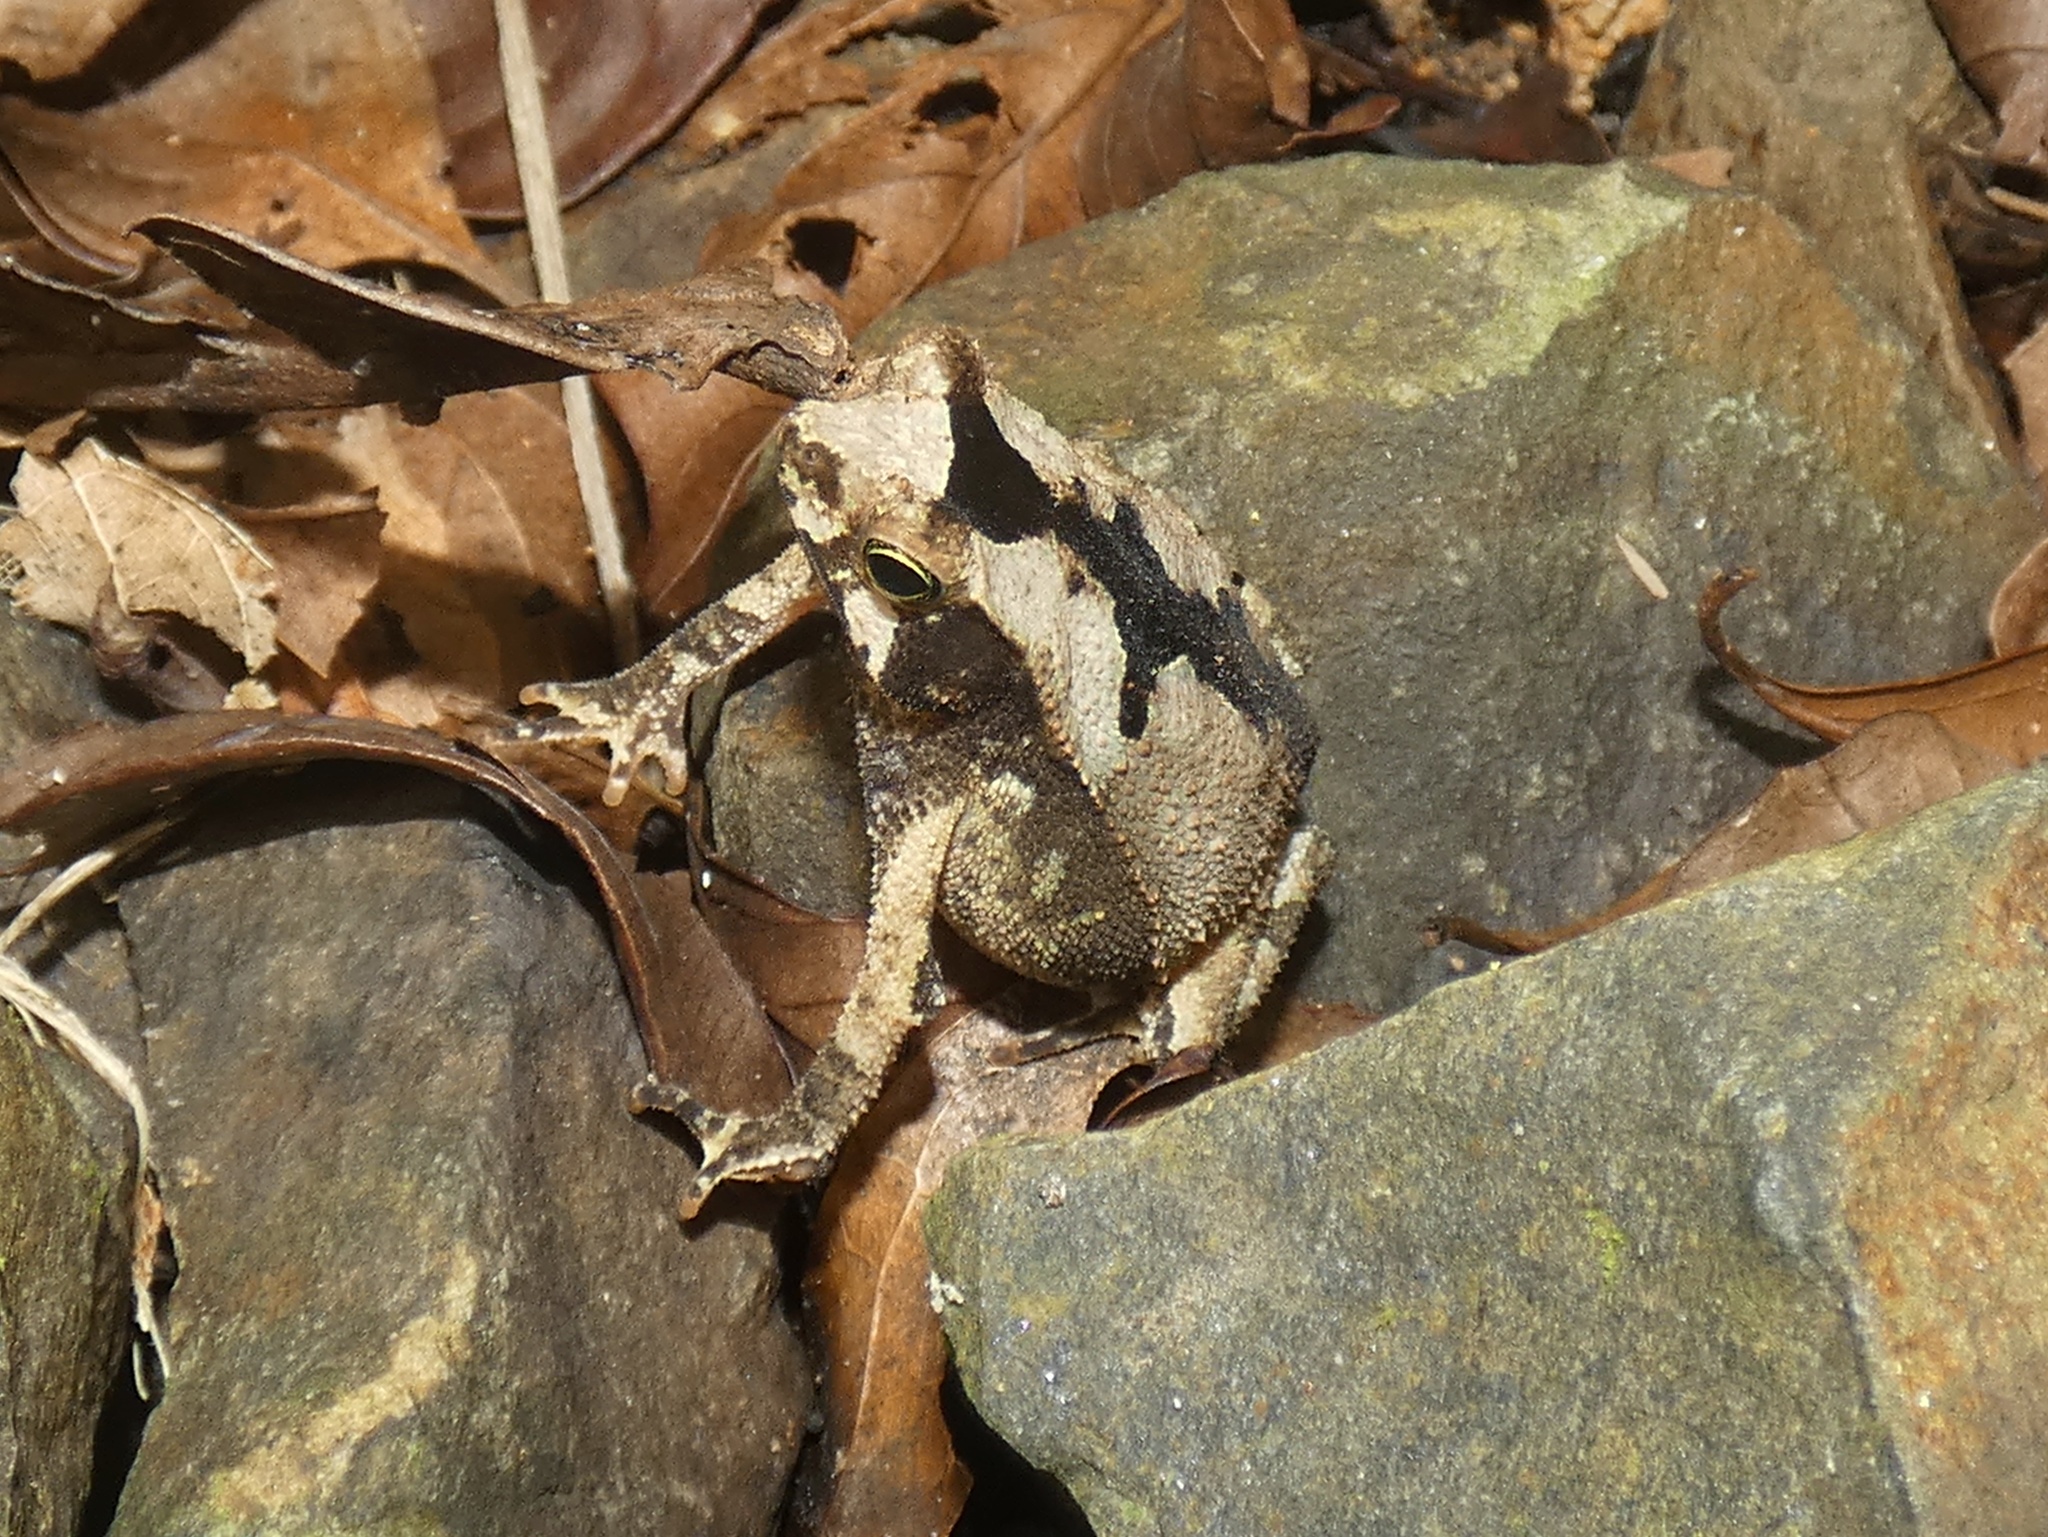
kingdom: Animalia
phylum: Chordata
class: Amphibia
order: Anura
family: Bufonidae
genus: Rhinella
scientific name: Rhinella alata
